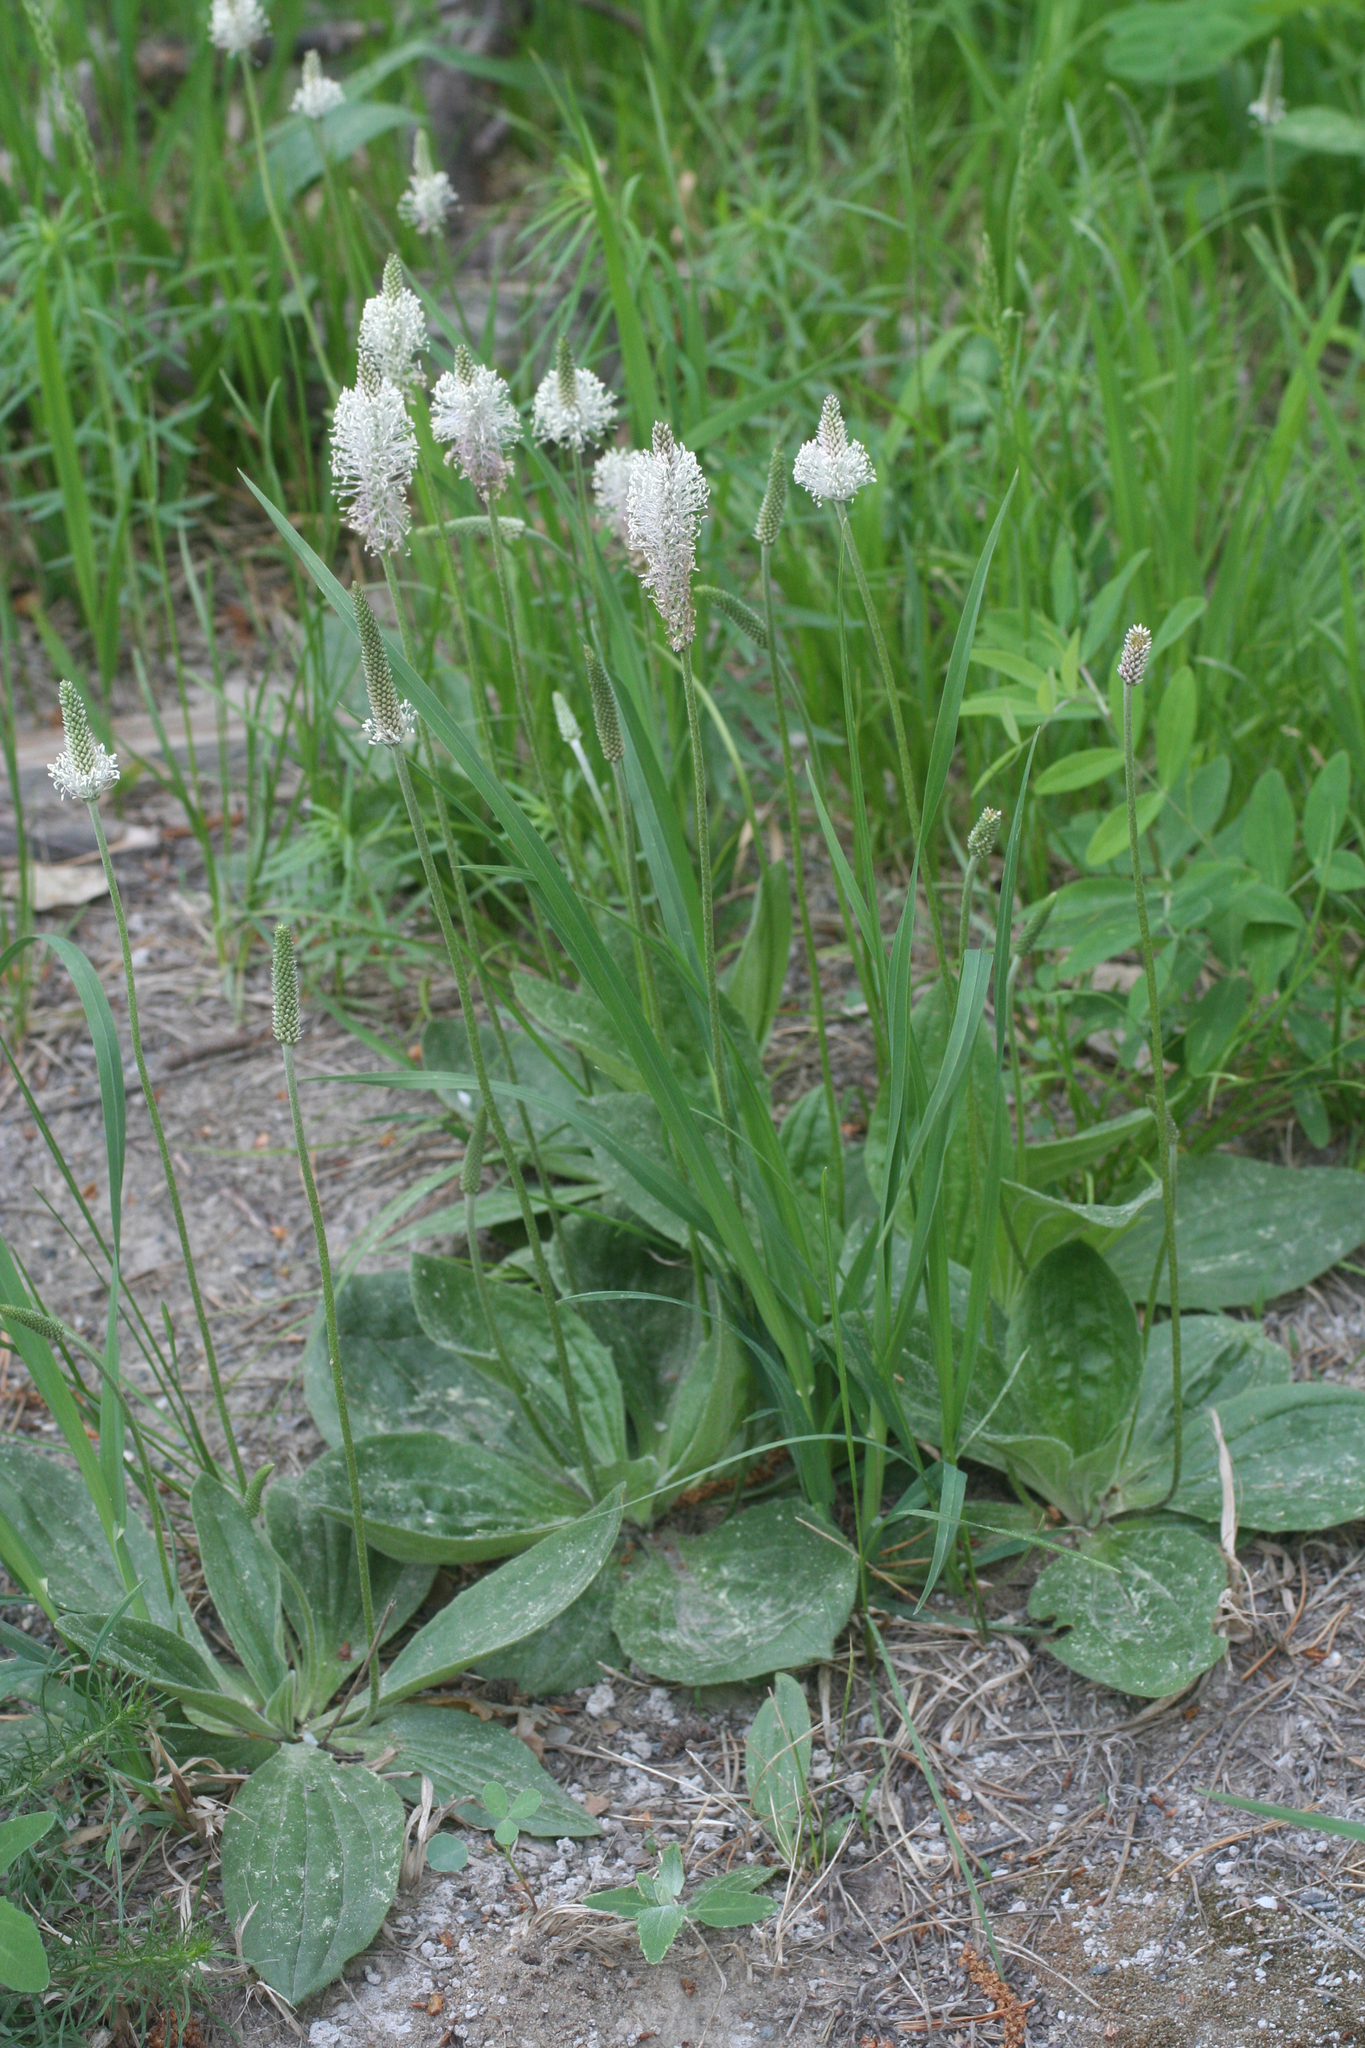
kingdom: Plantae
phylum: Tracheophyta
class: Magnoliopsida
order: Lamiales
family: Plantaginaceae
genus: Plantago
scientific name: Plantago media
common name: Hoary plantain
